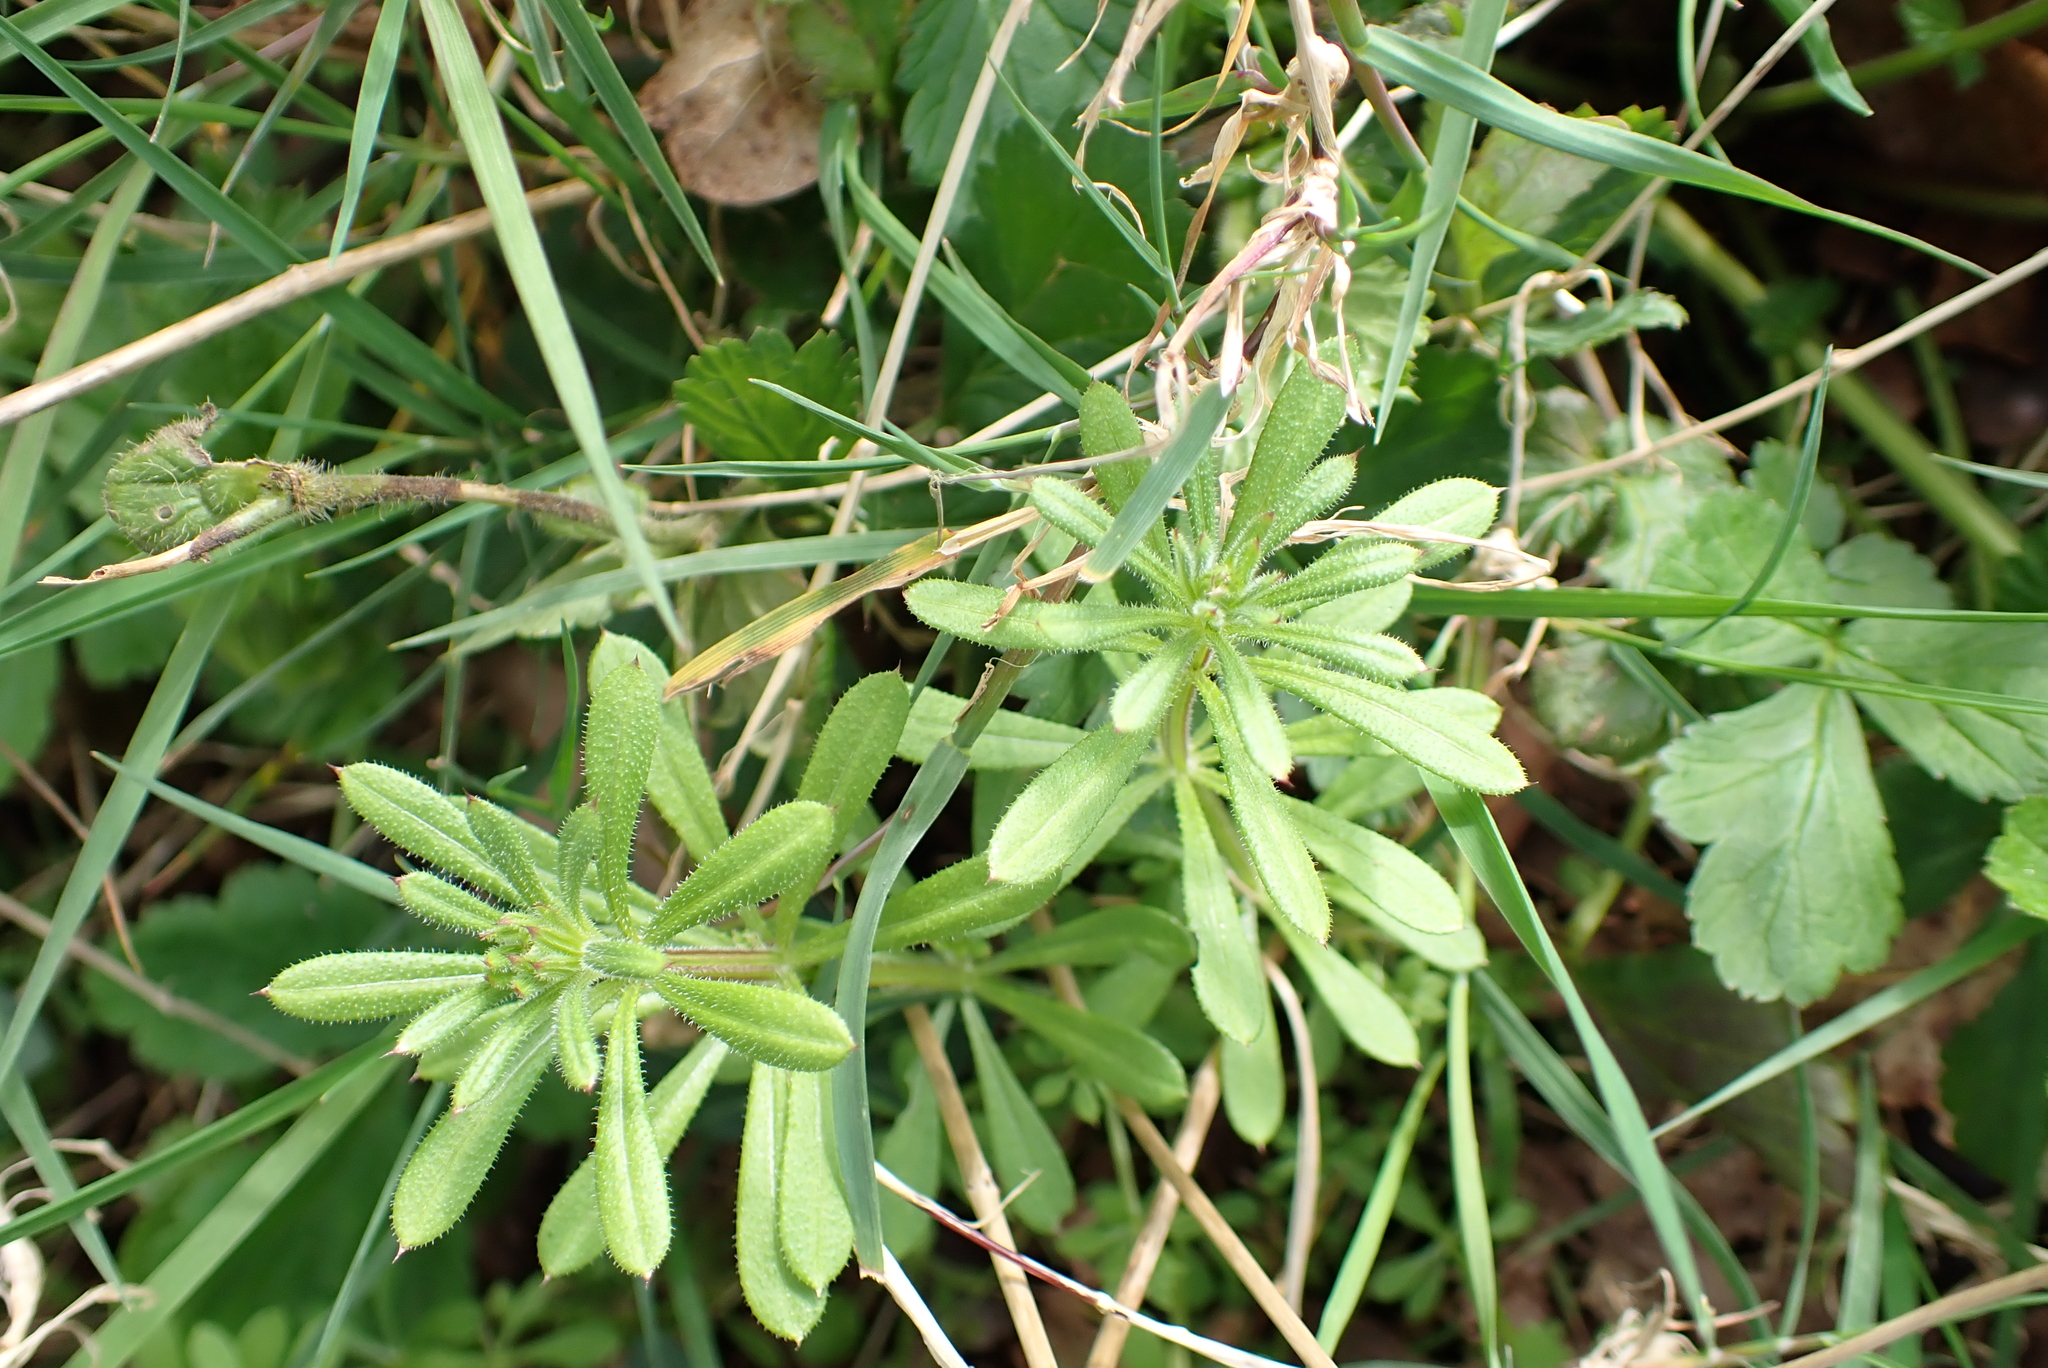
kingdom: Plantae
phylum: Tracheophyta
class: Magnoliopsida
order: Gentianales
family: Rubiaceae
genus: Galium
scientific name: Galium aparine
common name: Cleavers
